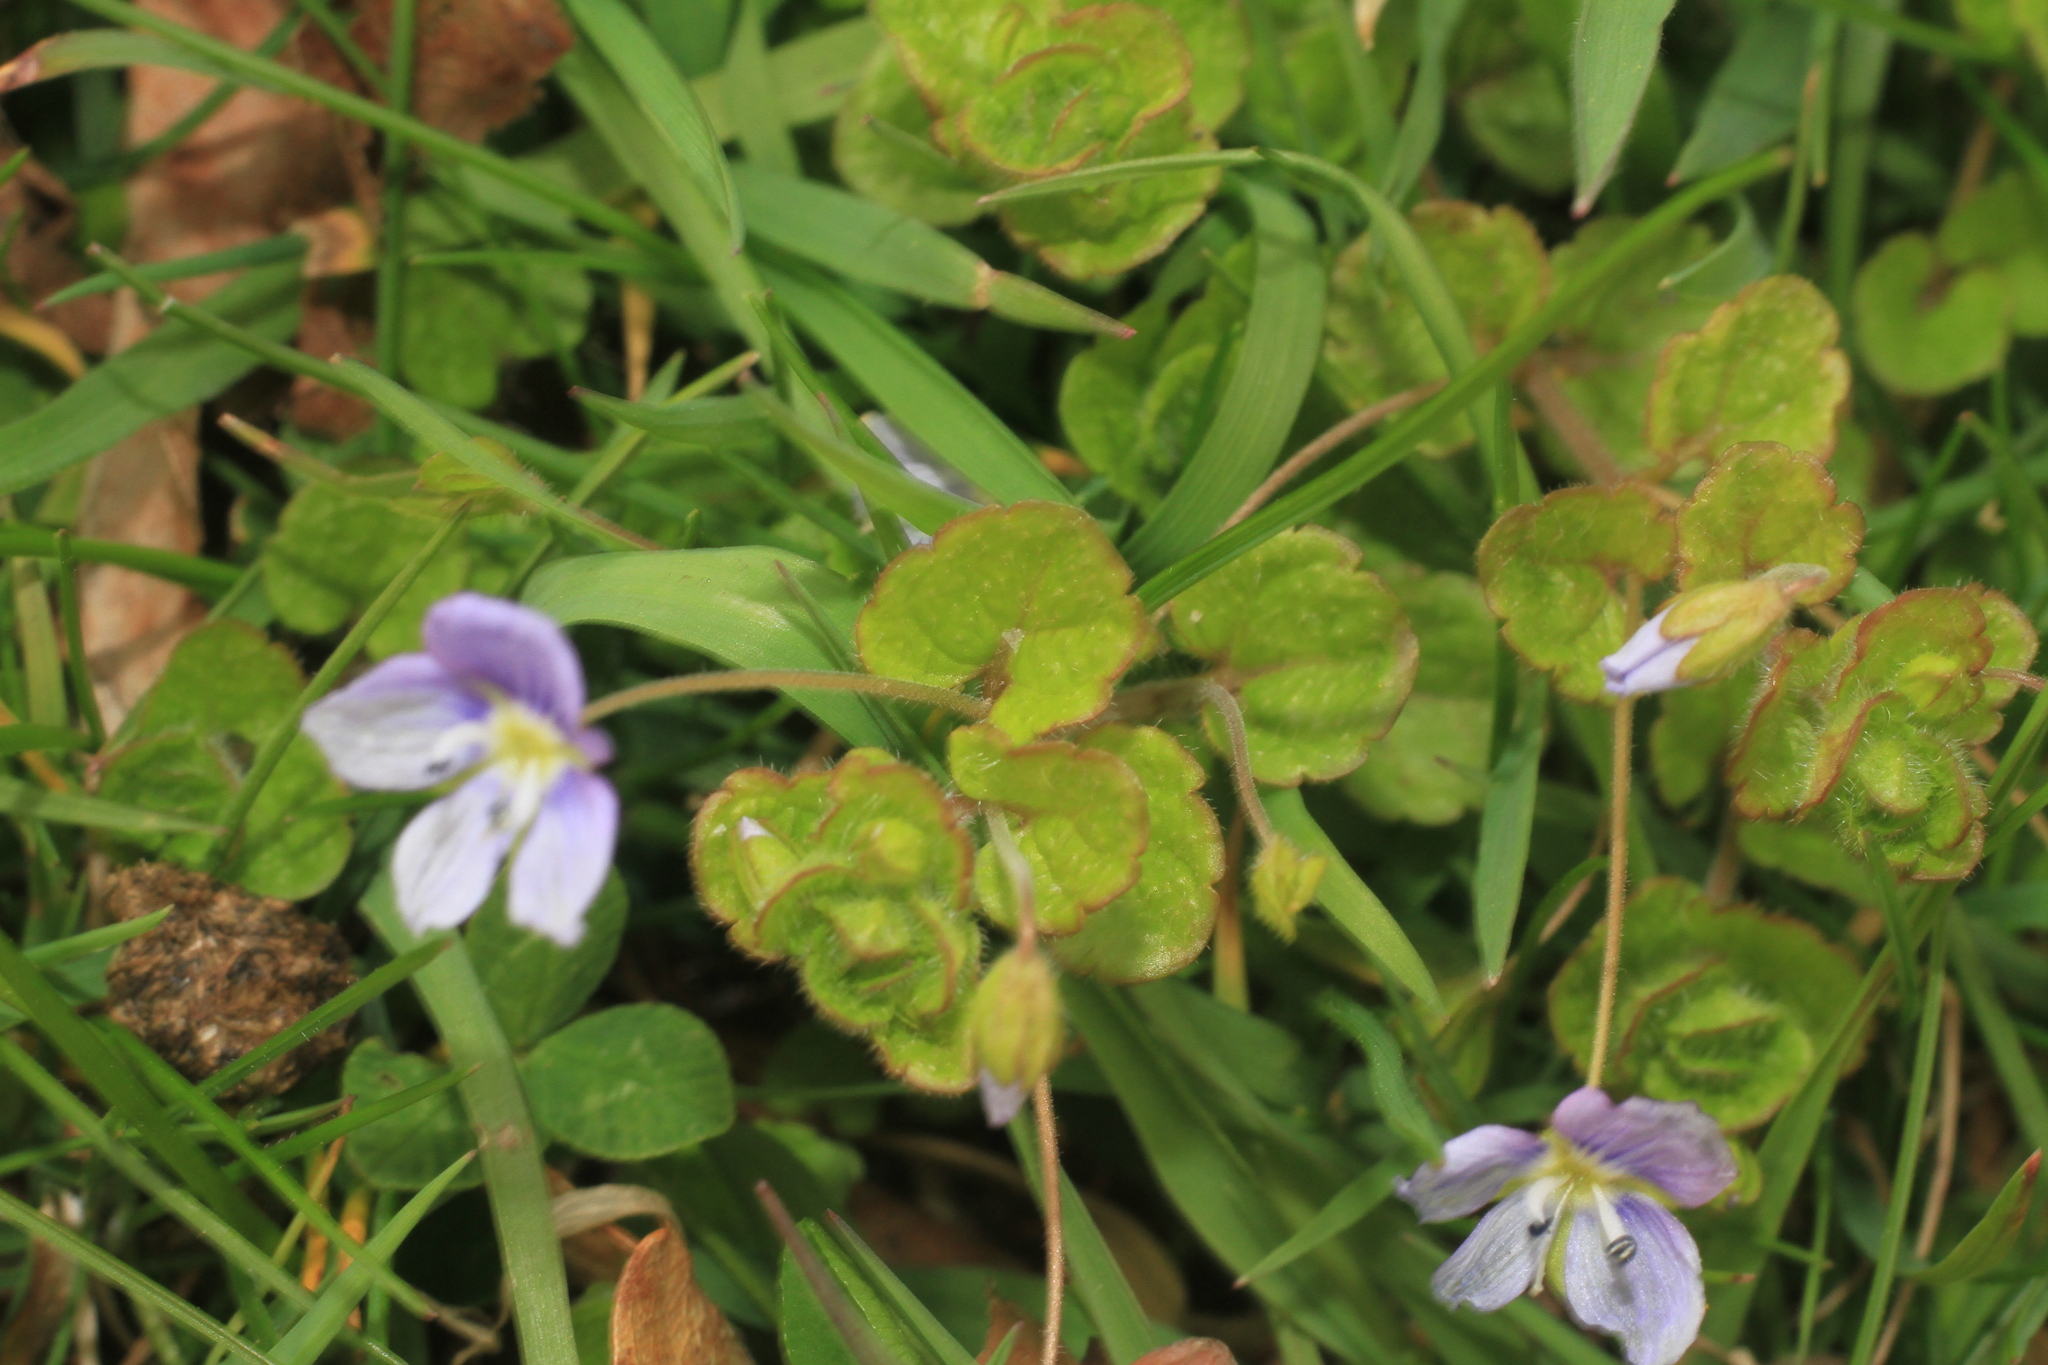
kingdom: Plantae
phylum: Tracheophyta
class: Magnoliopsida
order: Lamiales
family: Plantaginaceae
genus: Veronica
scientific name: Veronica filiformis
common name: Slender speedwell
